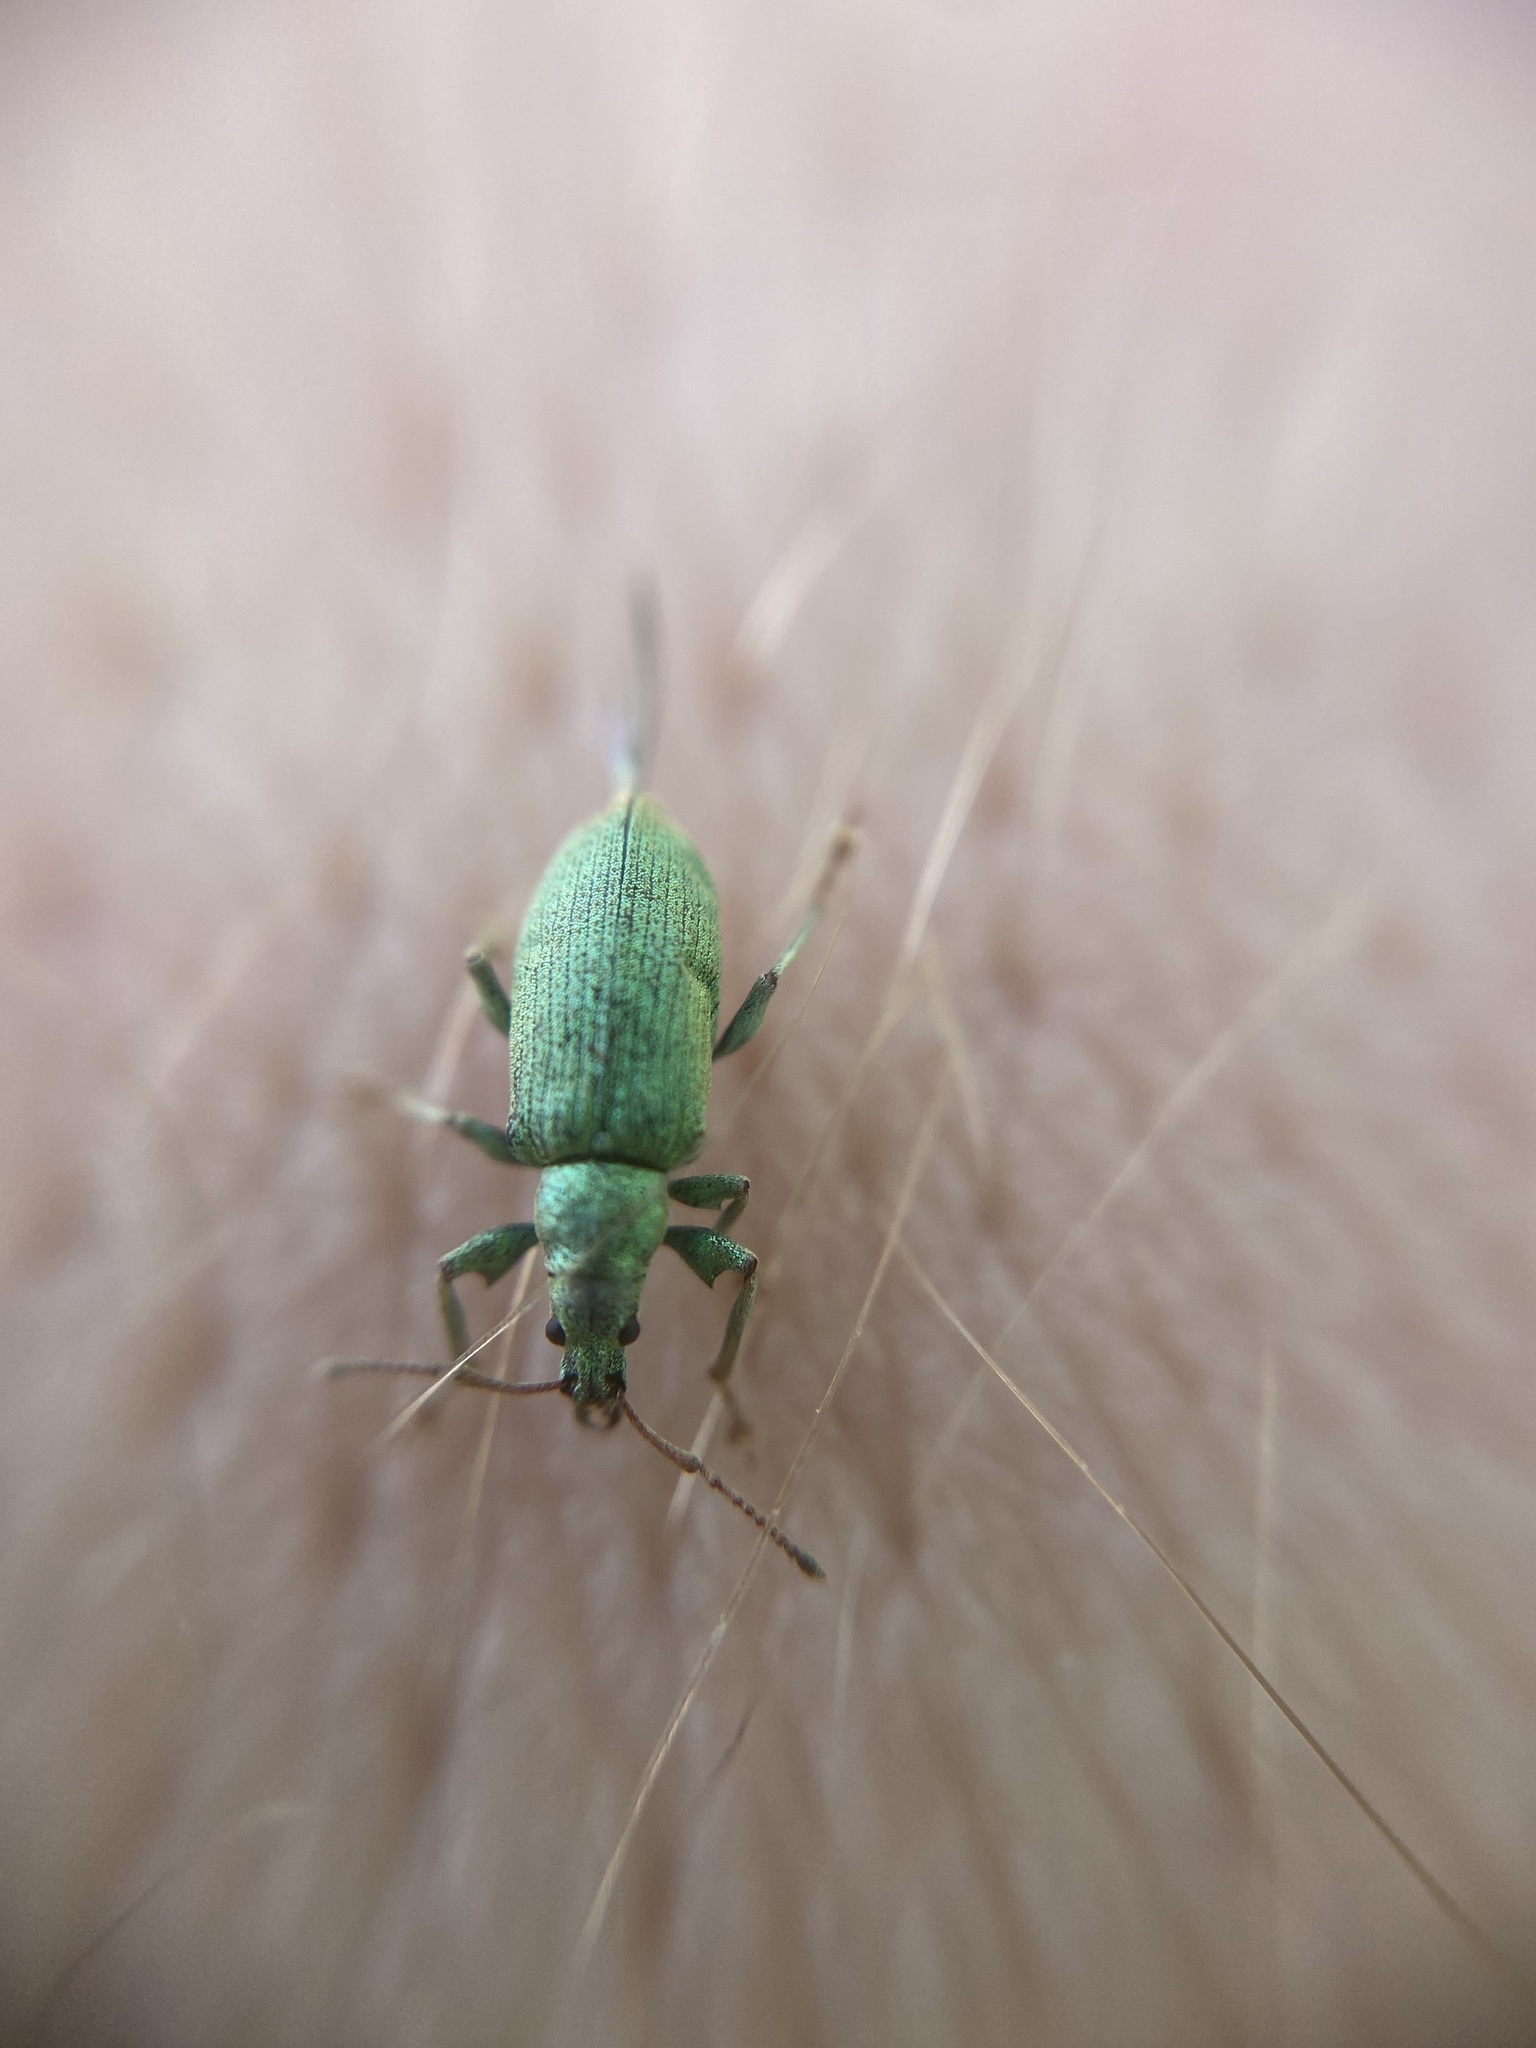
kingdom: Animalia
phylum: Arthropoda
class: Insecta
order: Coleoptera
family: Curculionidae
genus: Phyllobius
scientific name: Phyllobius maculicornis
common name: Green leaf weevil
